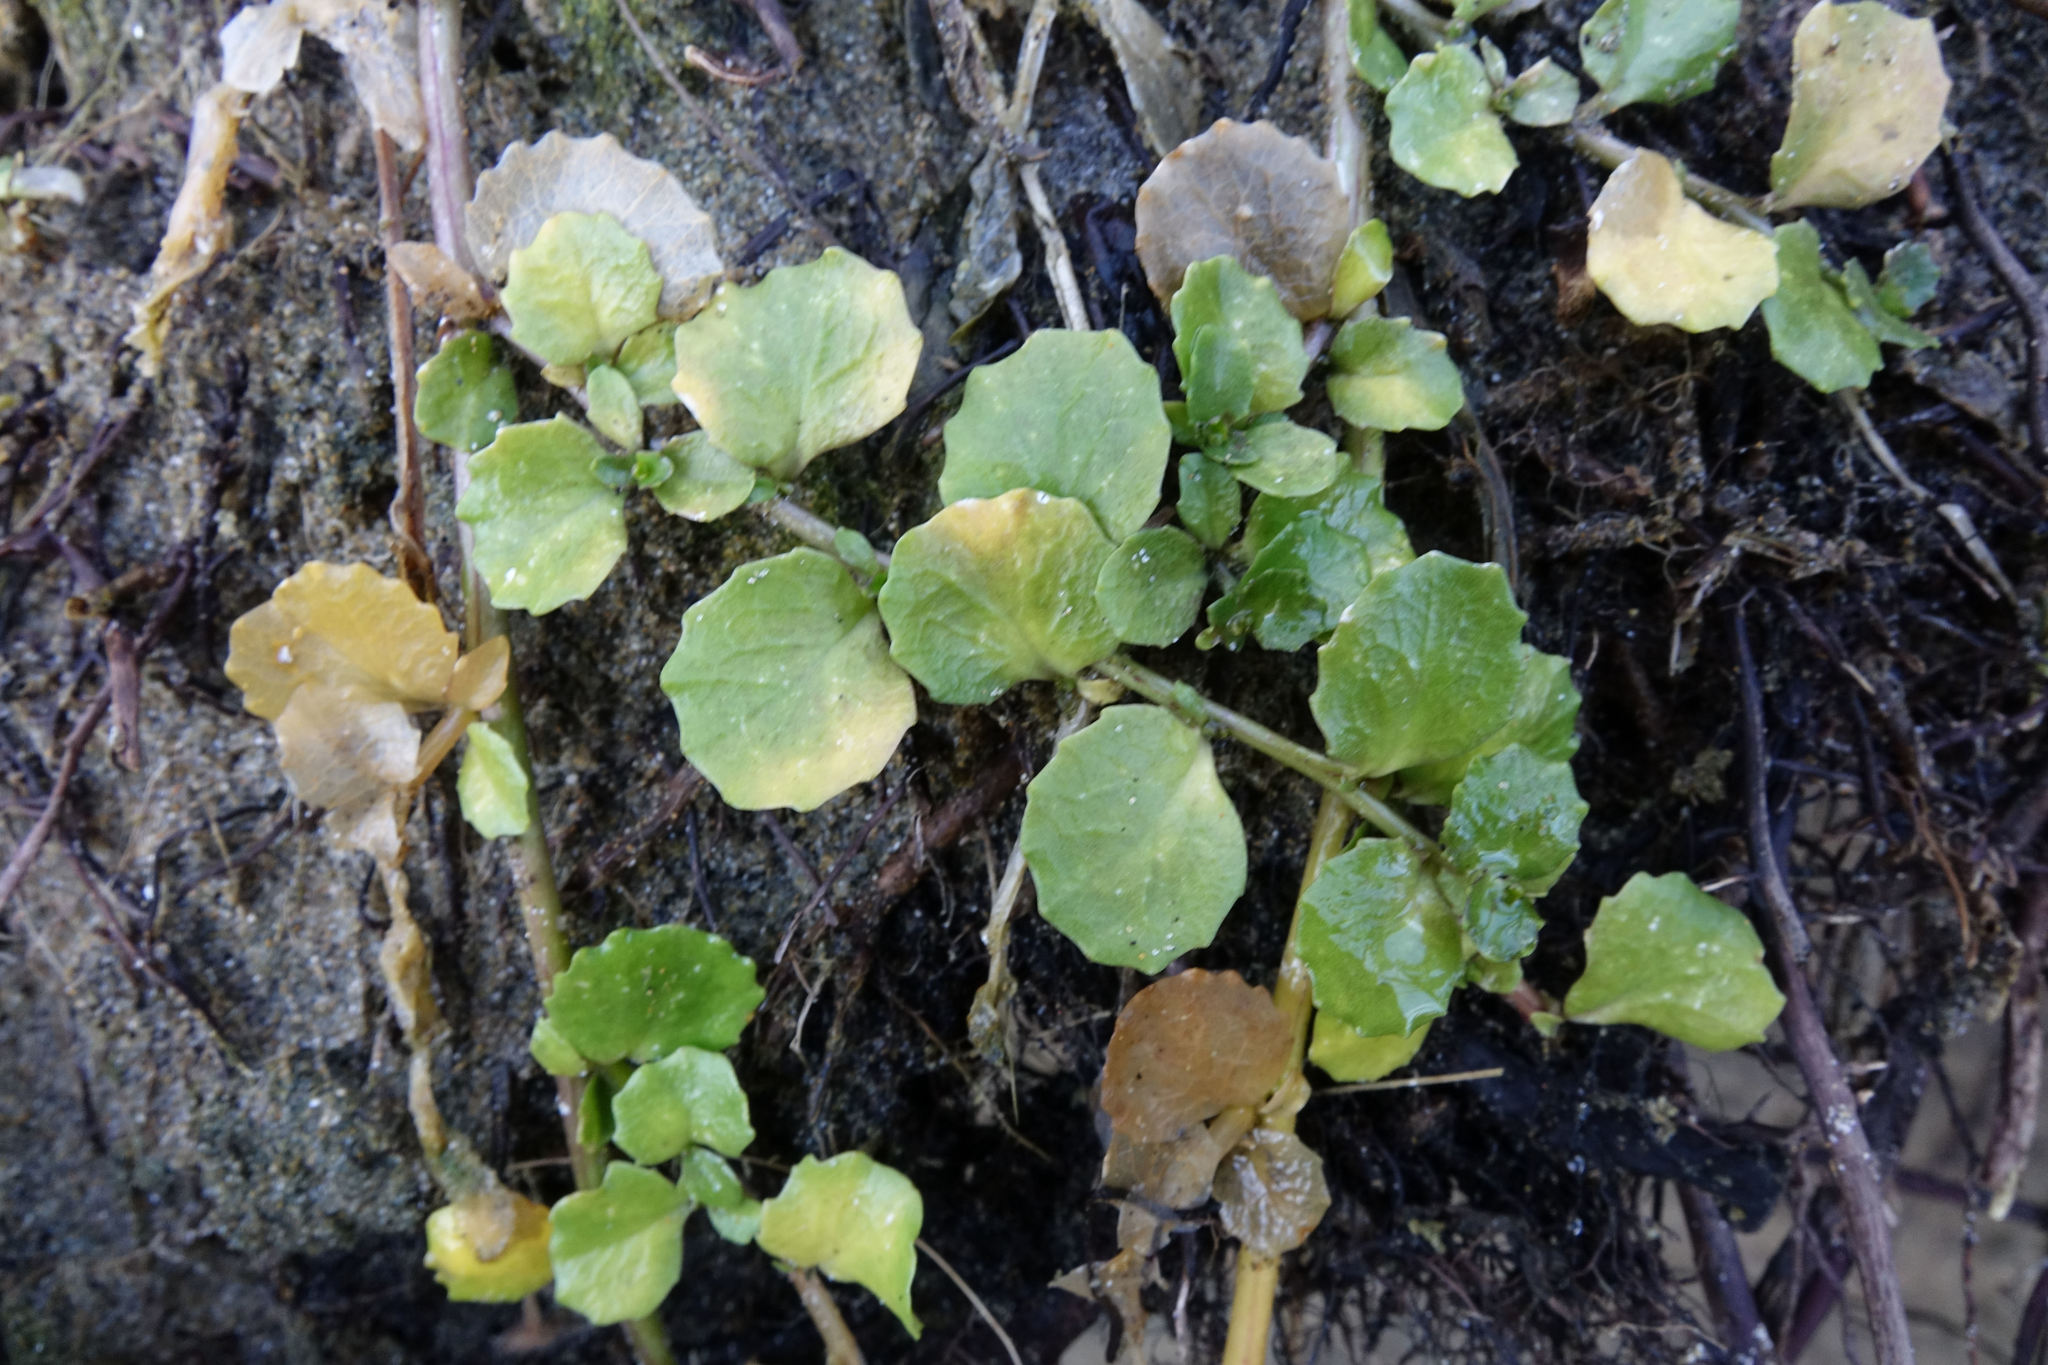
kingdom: Plantae
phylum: Tracheophyta
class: Magnoliopsida
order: Asterales
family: Campanulaceae
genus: Lobelia
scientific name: Lobelia arenaria
